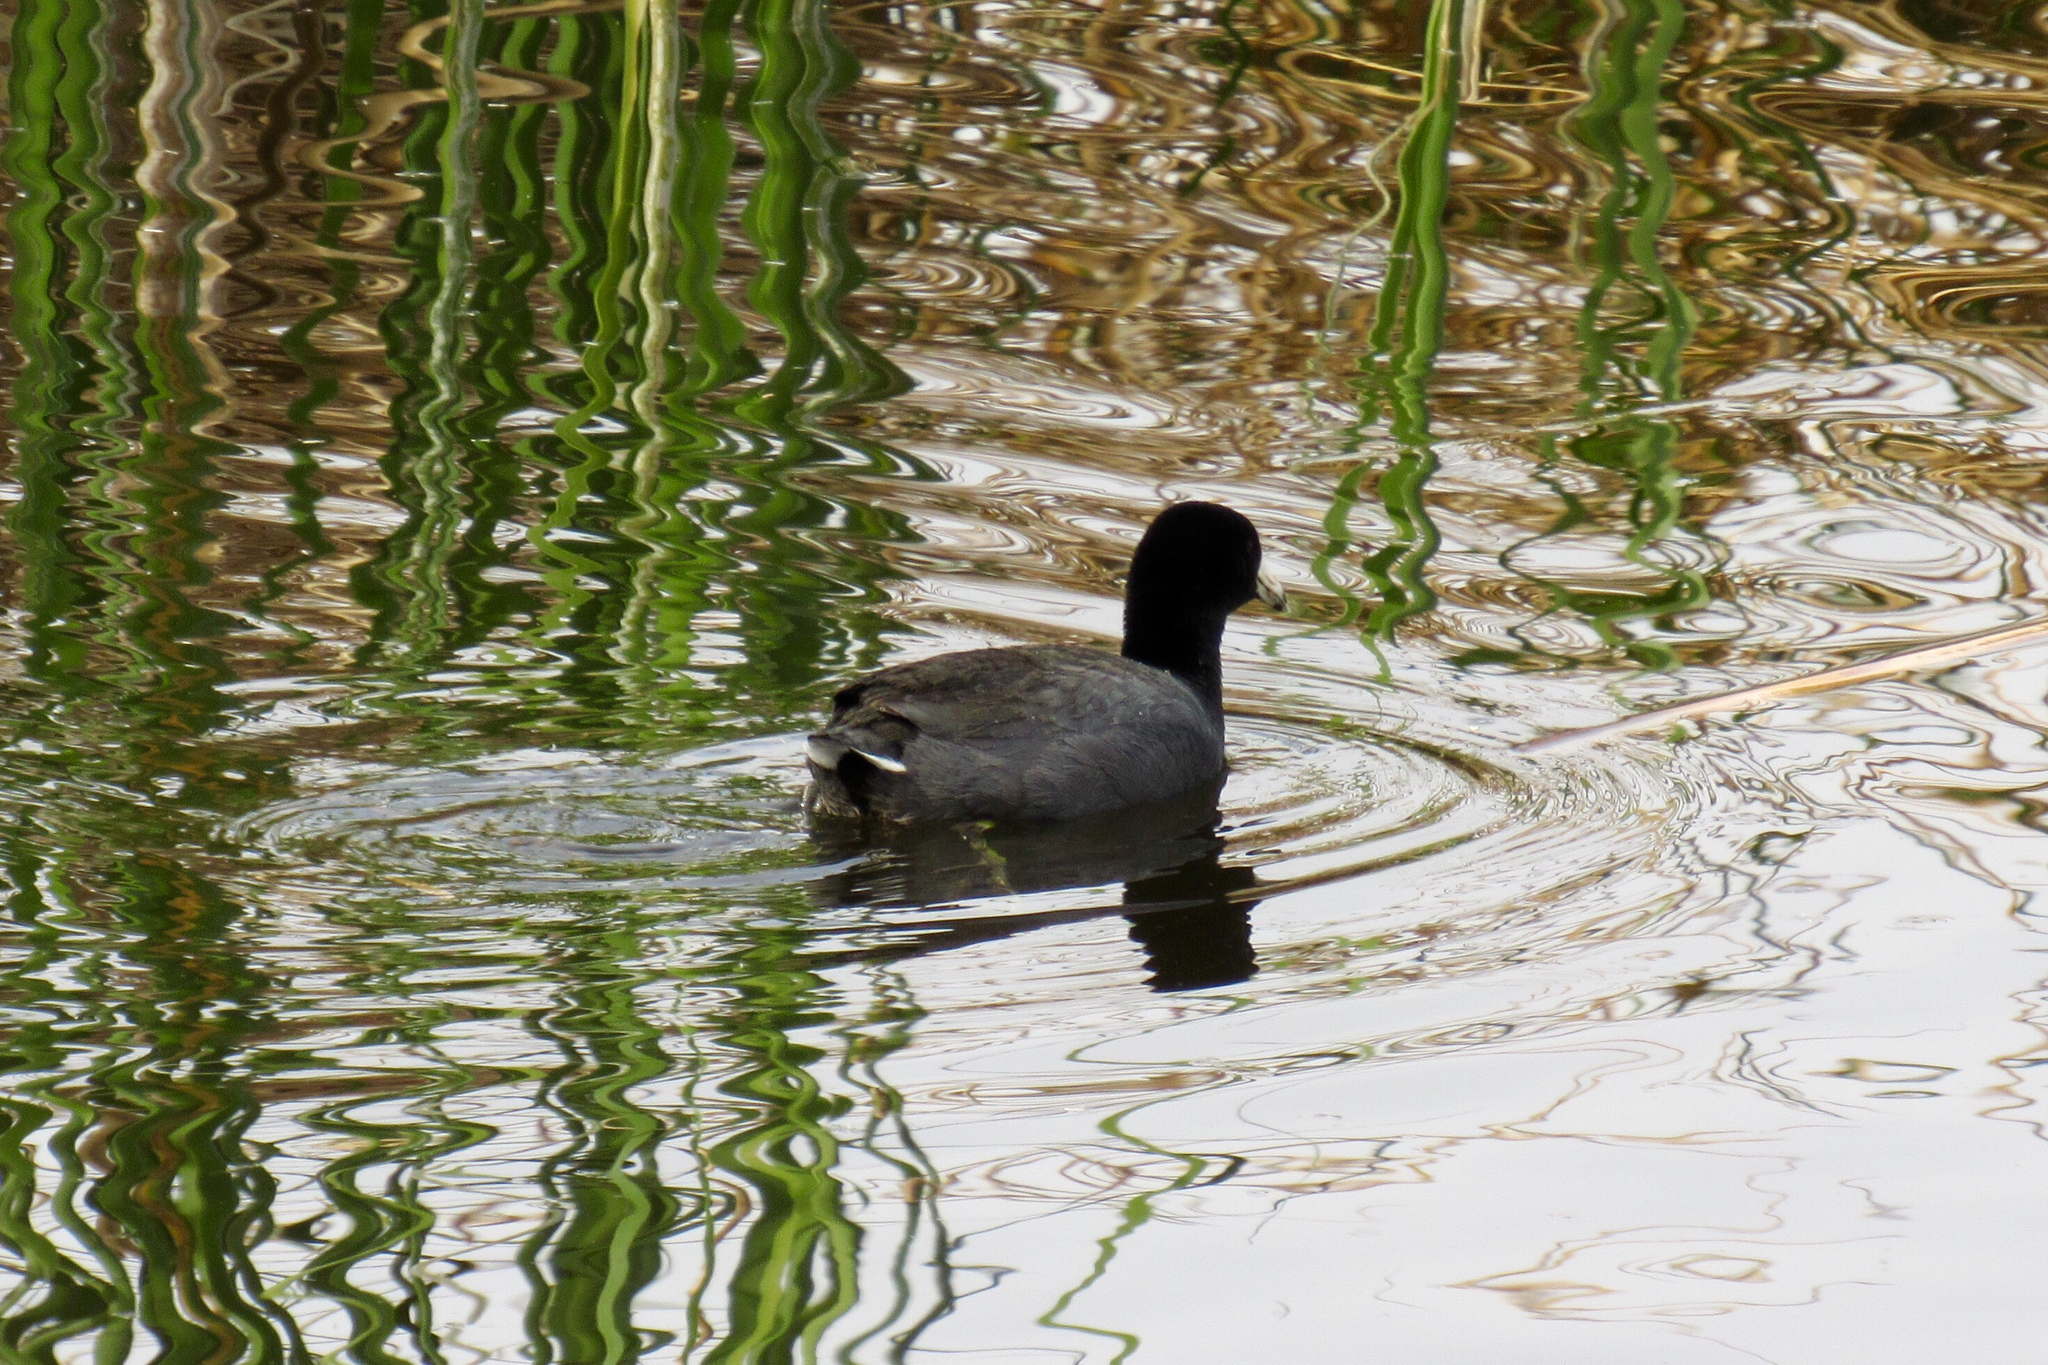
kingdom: Animalia
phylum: Chordata
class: Aves
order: Gruiformes
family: Rallidae
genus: Fulica
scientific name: Fulica americana
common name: American coot
